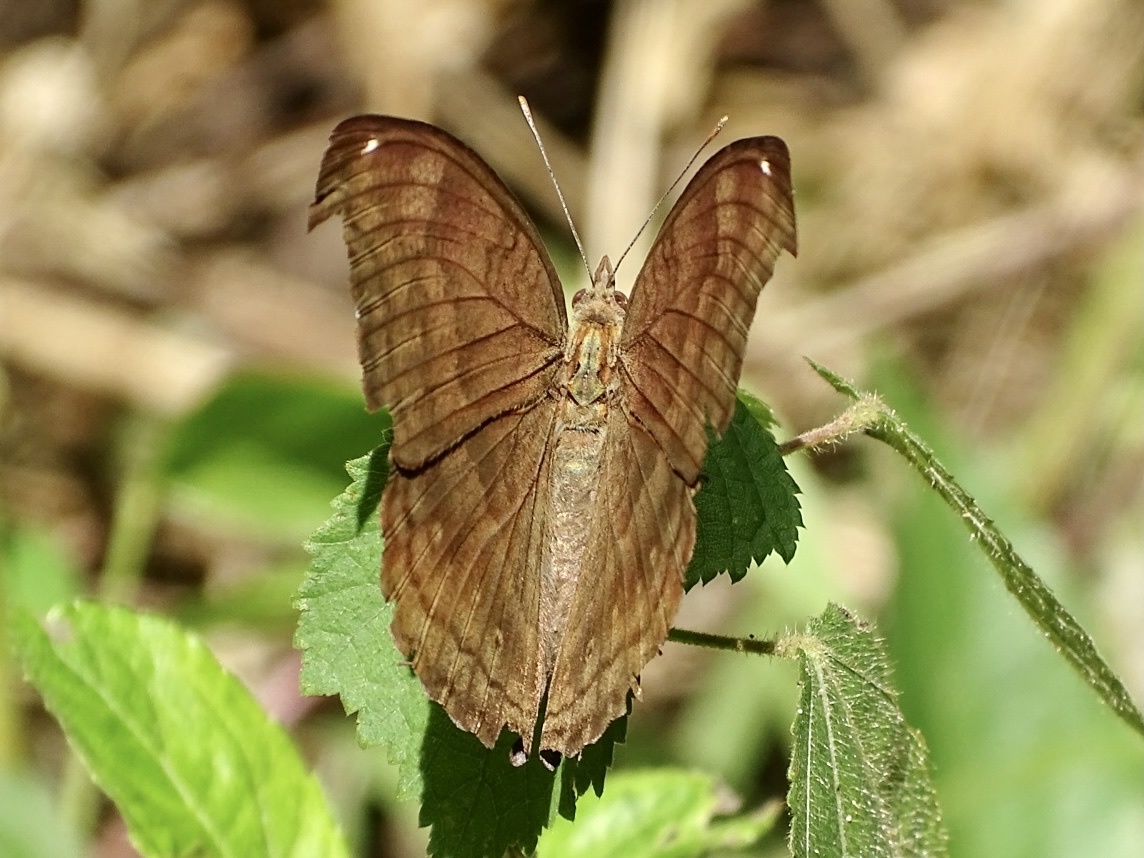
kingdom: Animalia
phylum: Arthropoda
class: Insecta
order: Lepidoptera
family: Nymphalidae
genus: Junonia
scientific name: Junonia iphita
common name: Chocolate pansy
